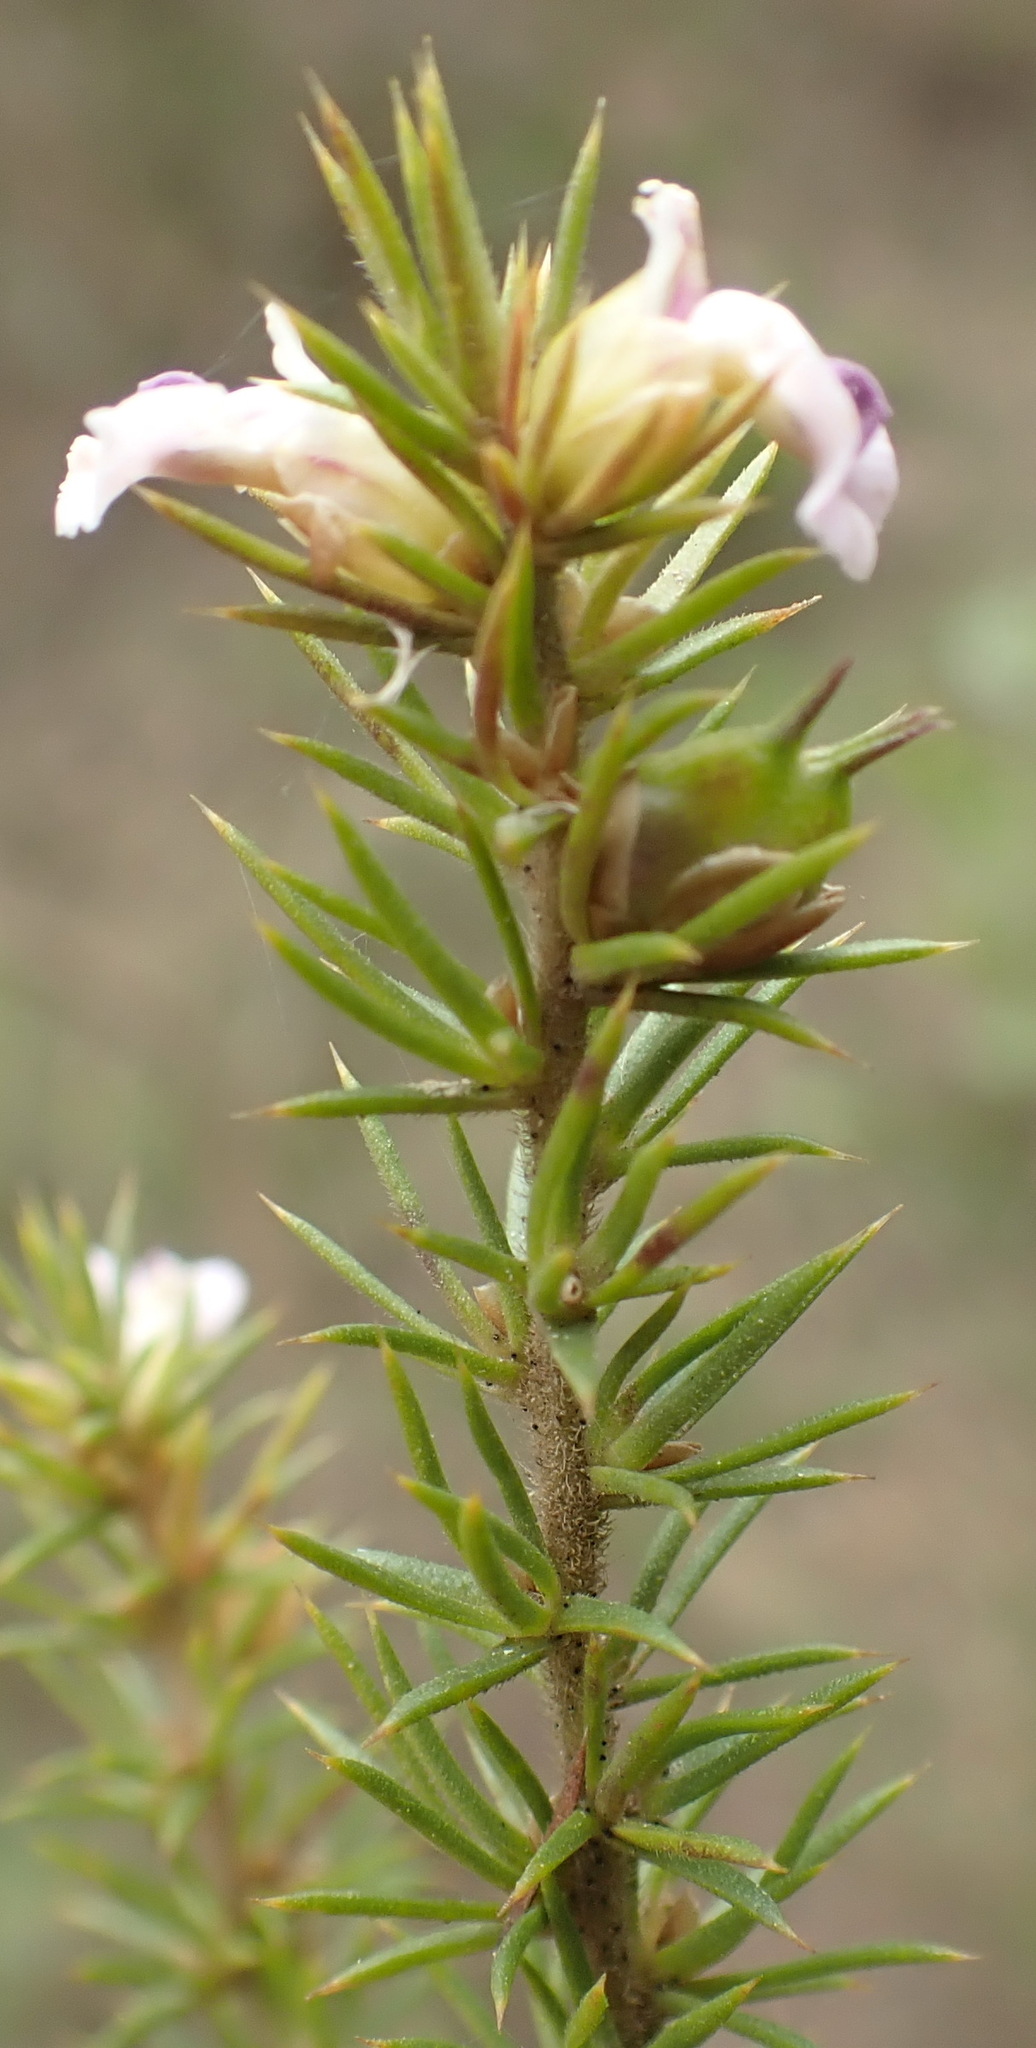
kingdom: Plantae
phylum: Tracheophyta
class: Magnoliopsida
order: Fabales
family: Polygalaceae
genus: Muraltia
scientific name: Muraltia ericifolia
